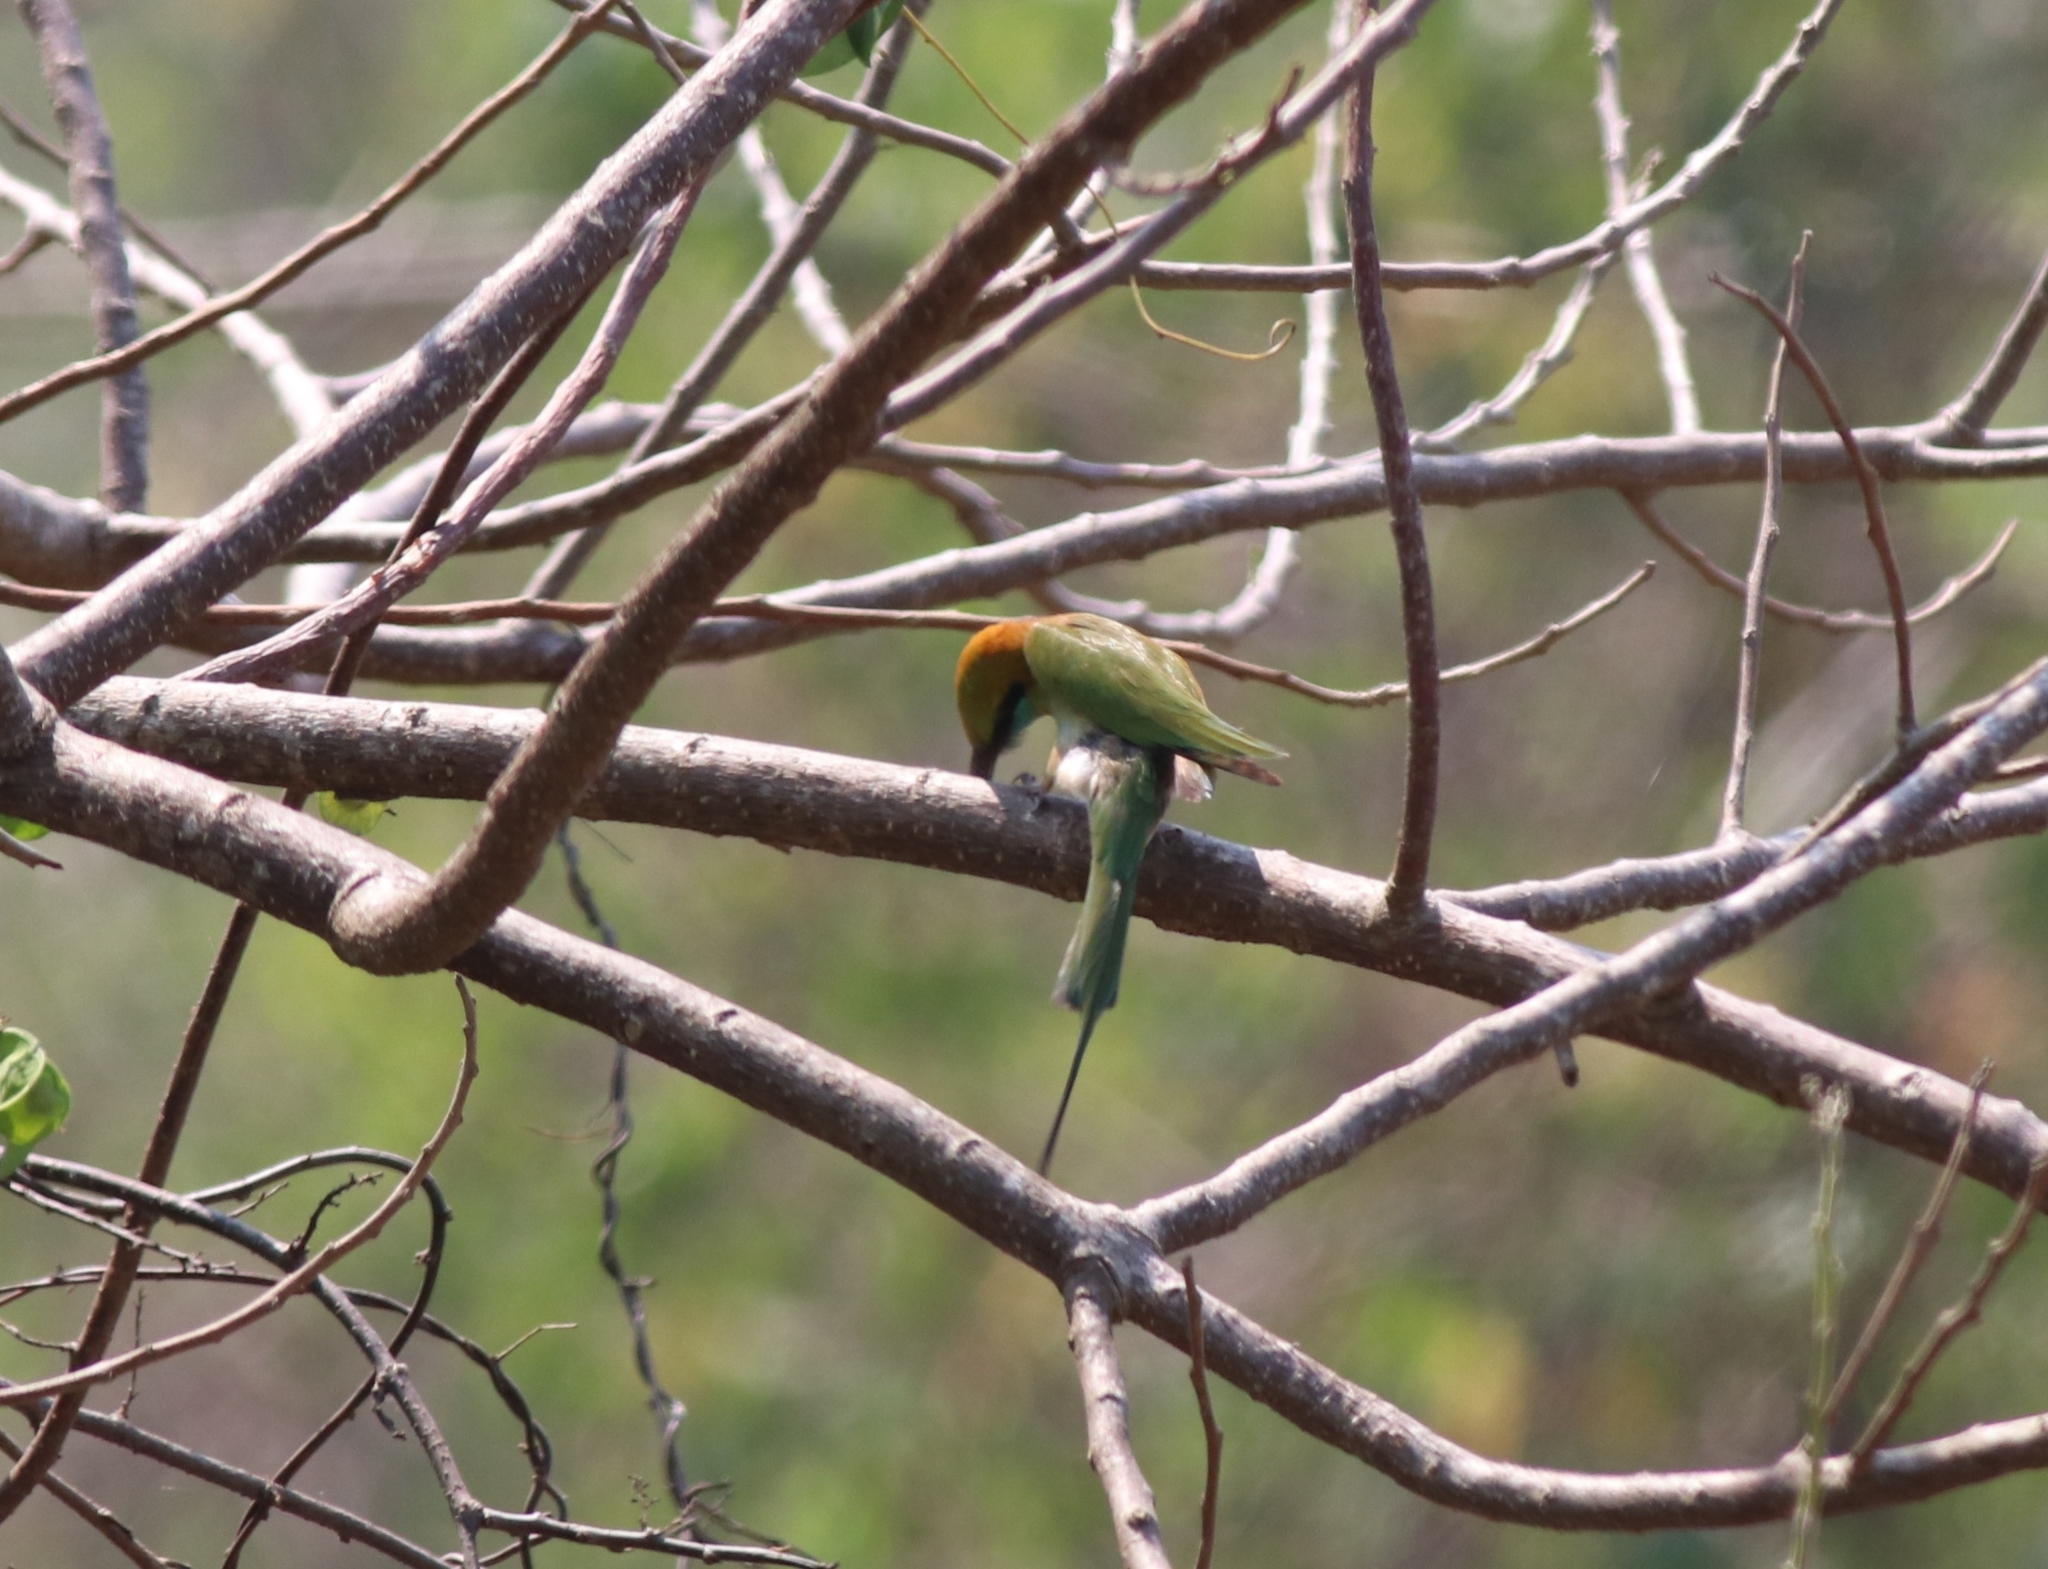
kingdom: Animalia
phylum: Chordata
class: Aves
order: Coraciiformes
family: Meropidae
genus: Merops
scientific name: Merops orientalis
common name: Green bee-eater
